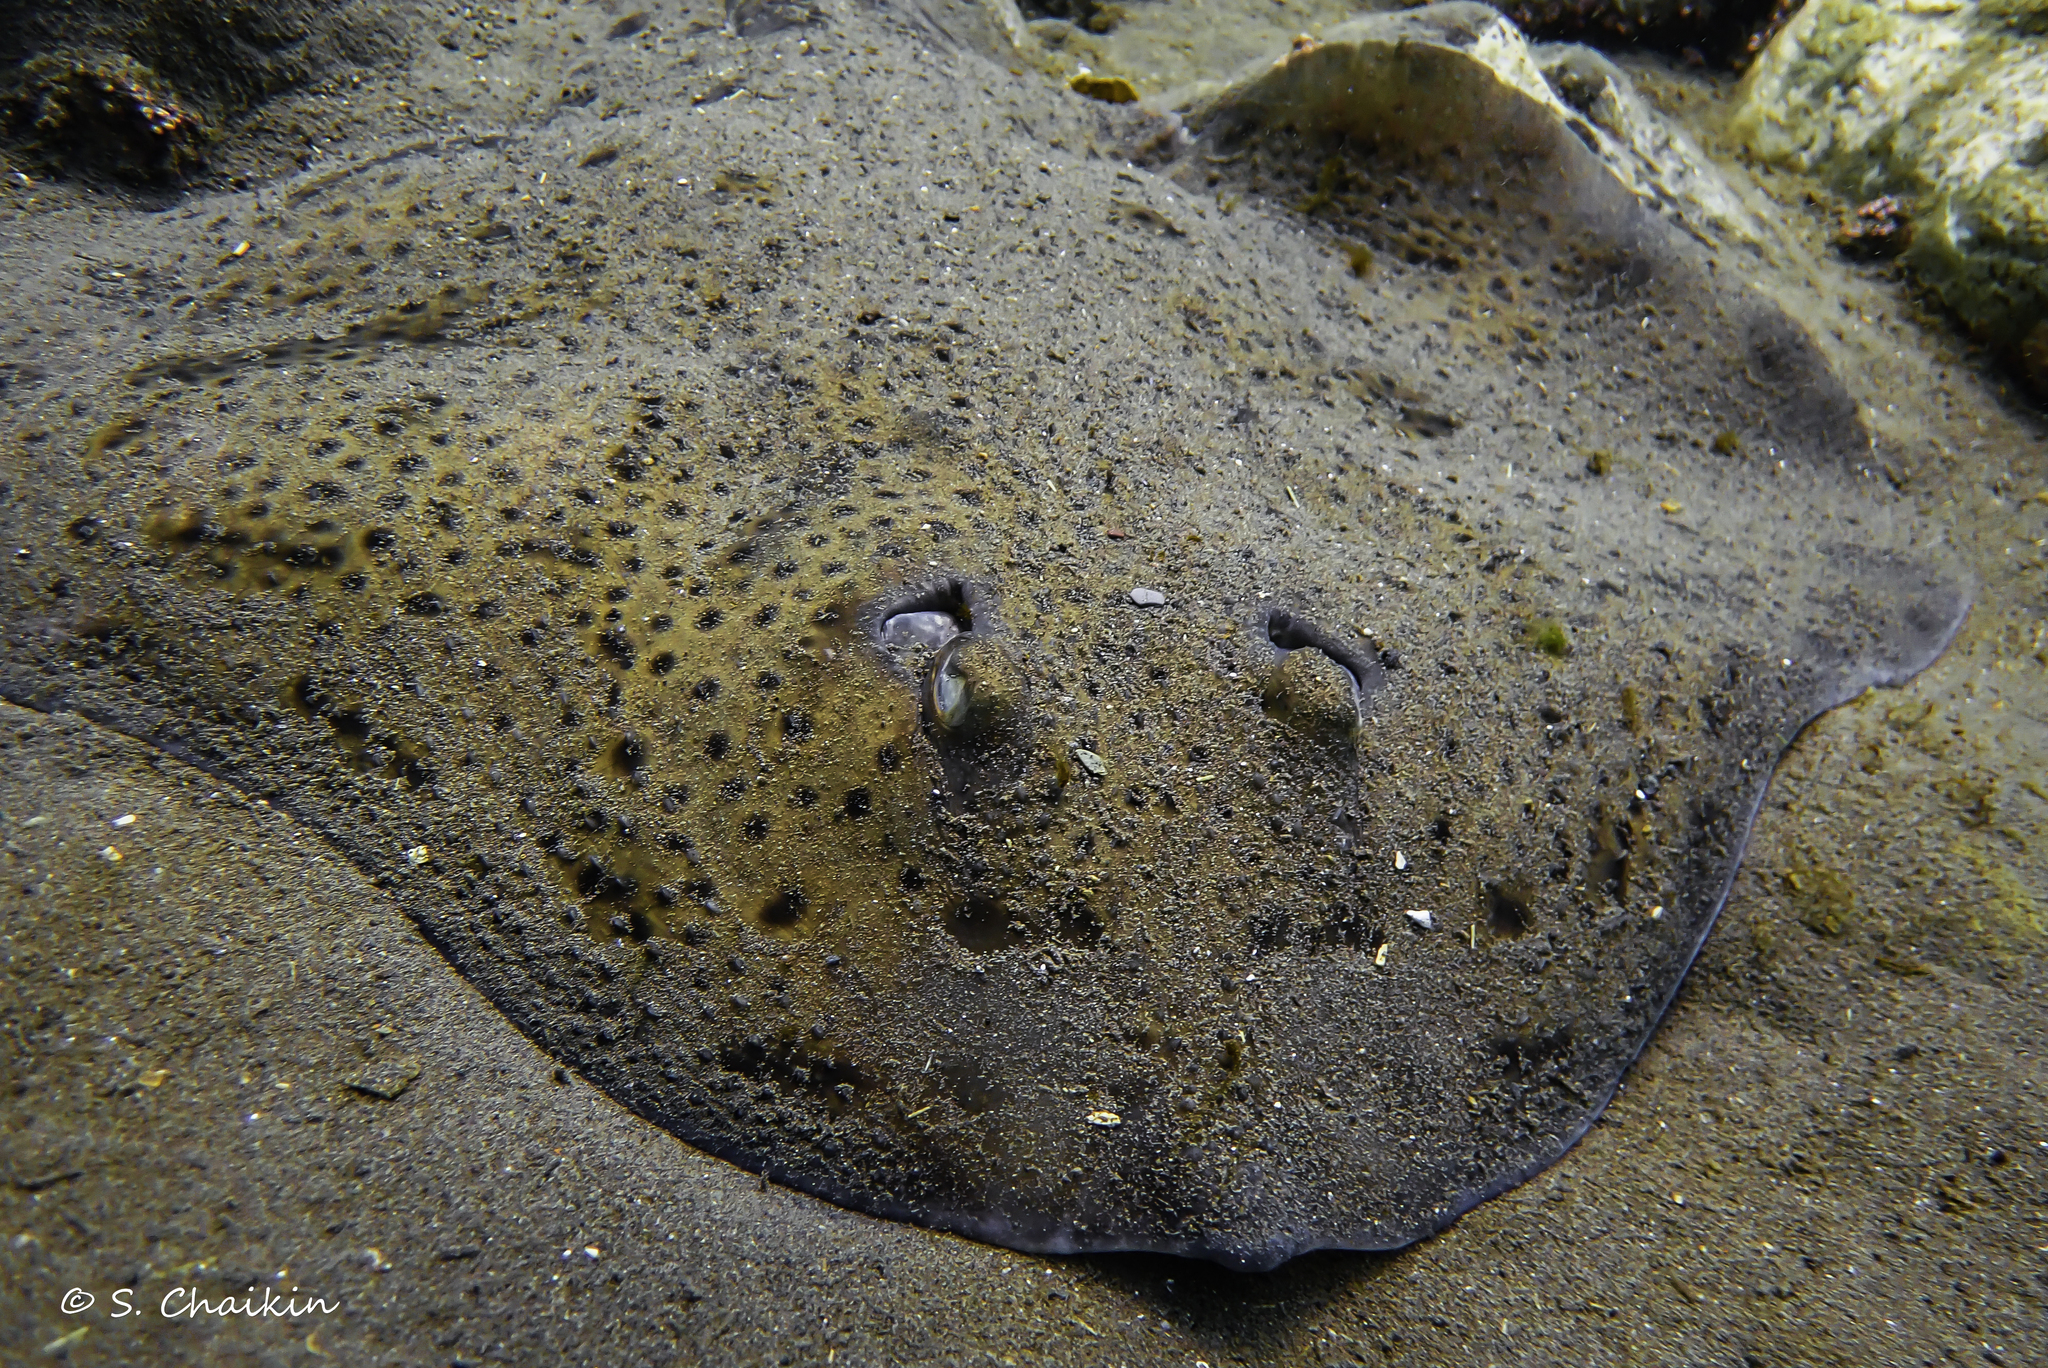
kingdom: Animalia
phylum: Chordata
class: Elasmobranchii
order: Rajiformes
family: Rajidae
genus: Leucoraja
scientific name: Leucoraja ocellata
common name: Winter skate
